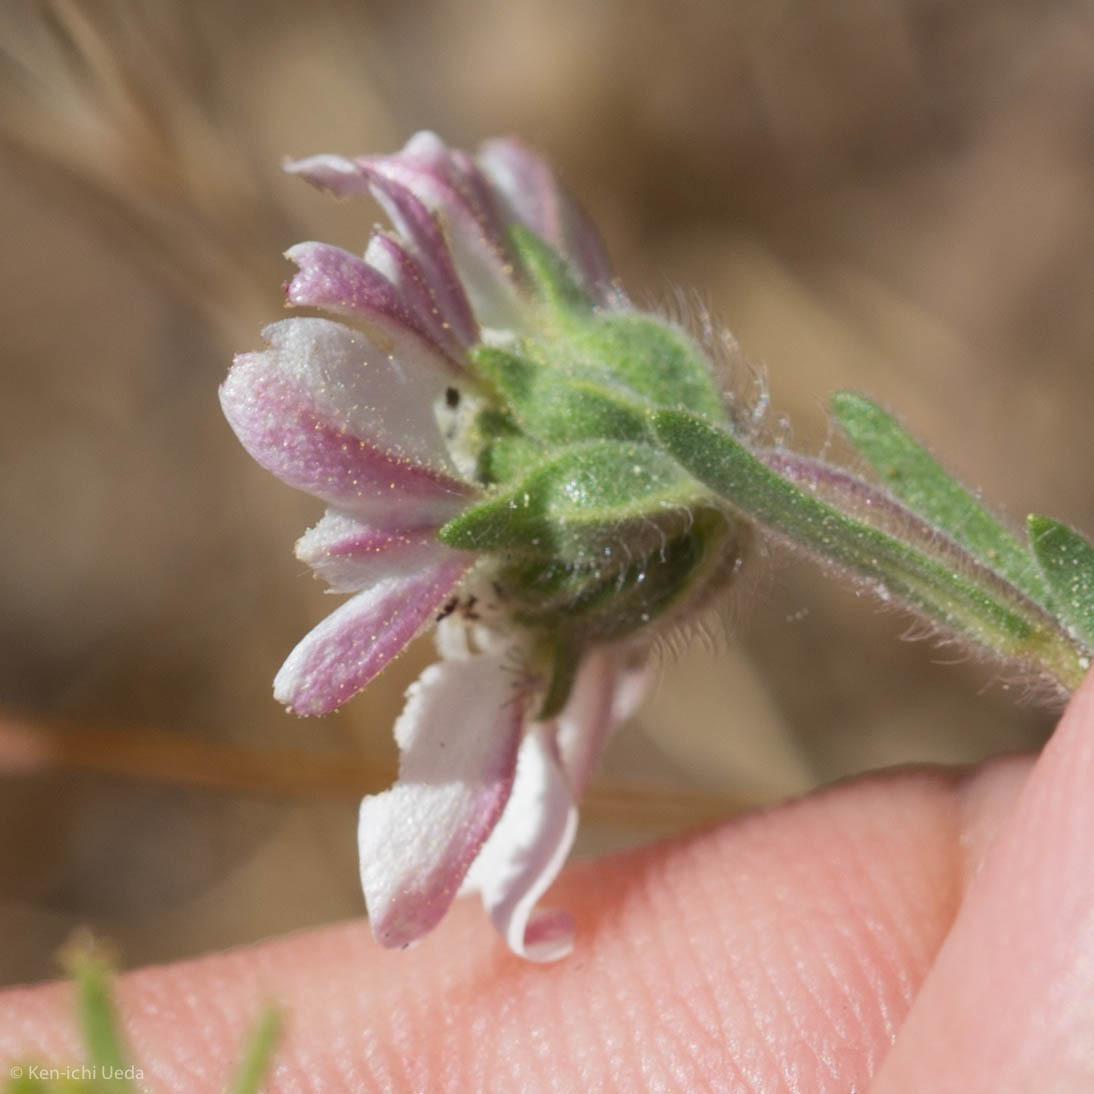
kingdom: Plantae
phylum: Tracheophyta
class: Magnoliopsida
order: Asterales
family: Asteraceae
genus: Hemizonia
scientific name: Hemizonia congesta
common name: Hayfield tarweed
